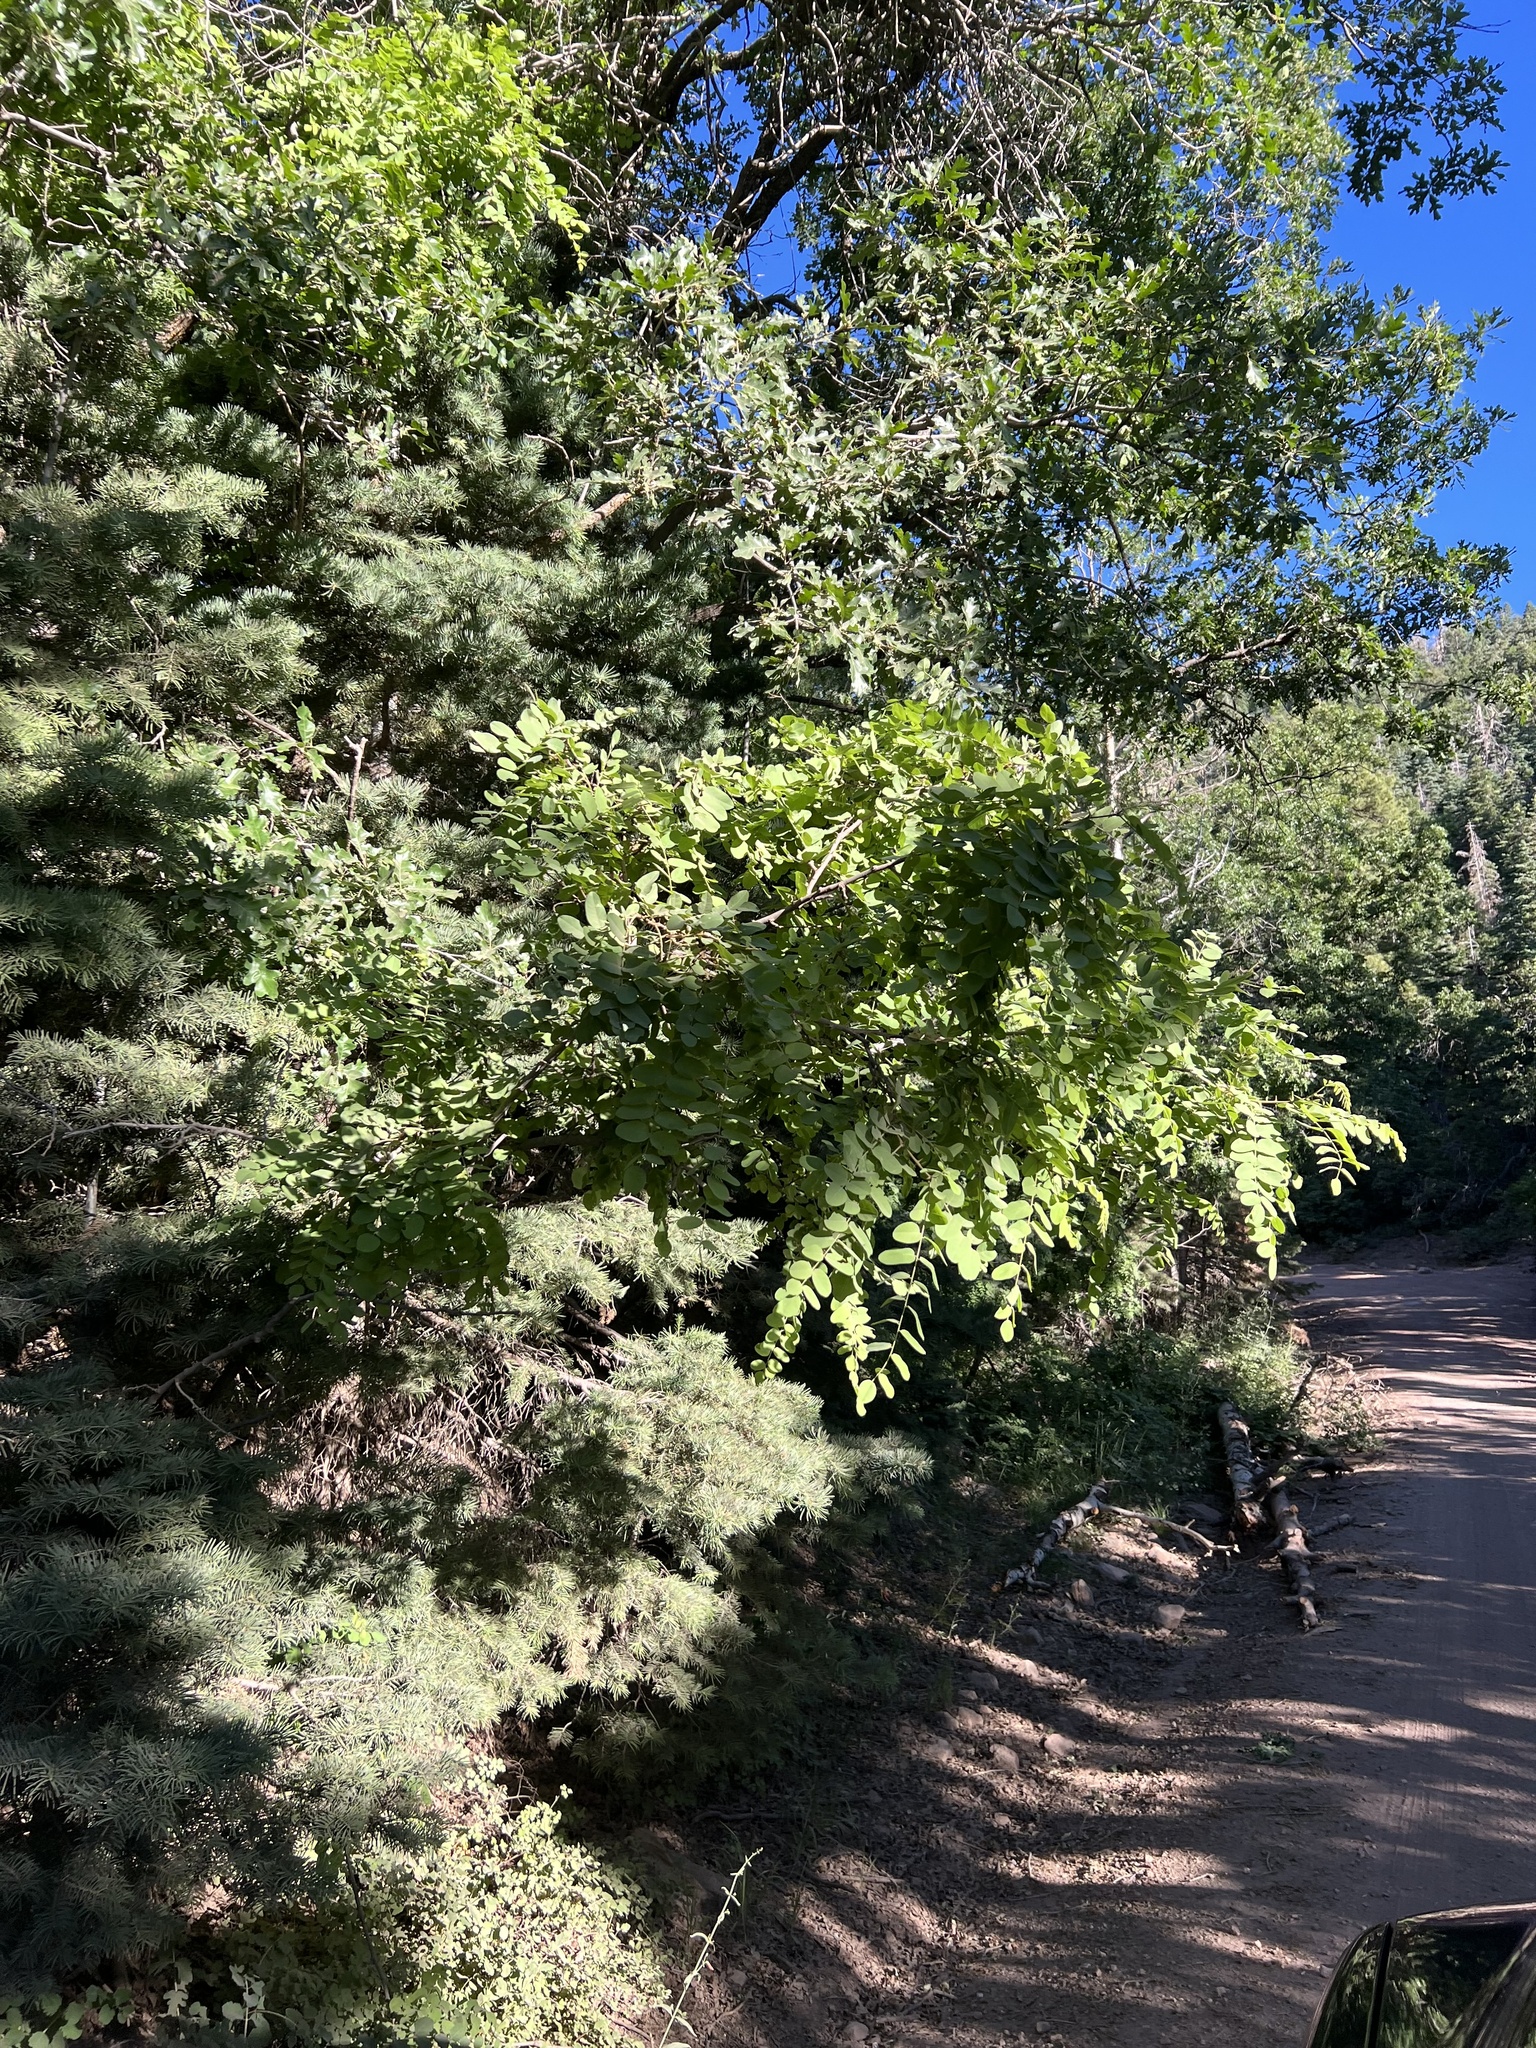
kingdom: Plantae
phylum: Tracheophyta
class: Magnoliopsida
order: Fabales
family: Fabaceae
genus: Robinia
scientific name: Robinia neomexicana
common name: New mexico locust
